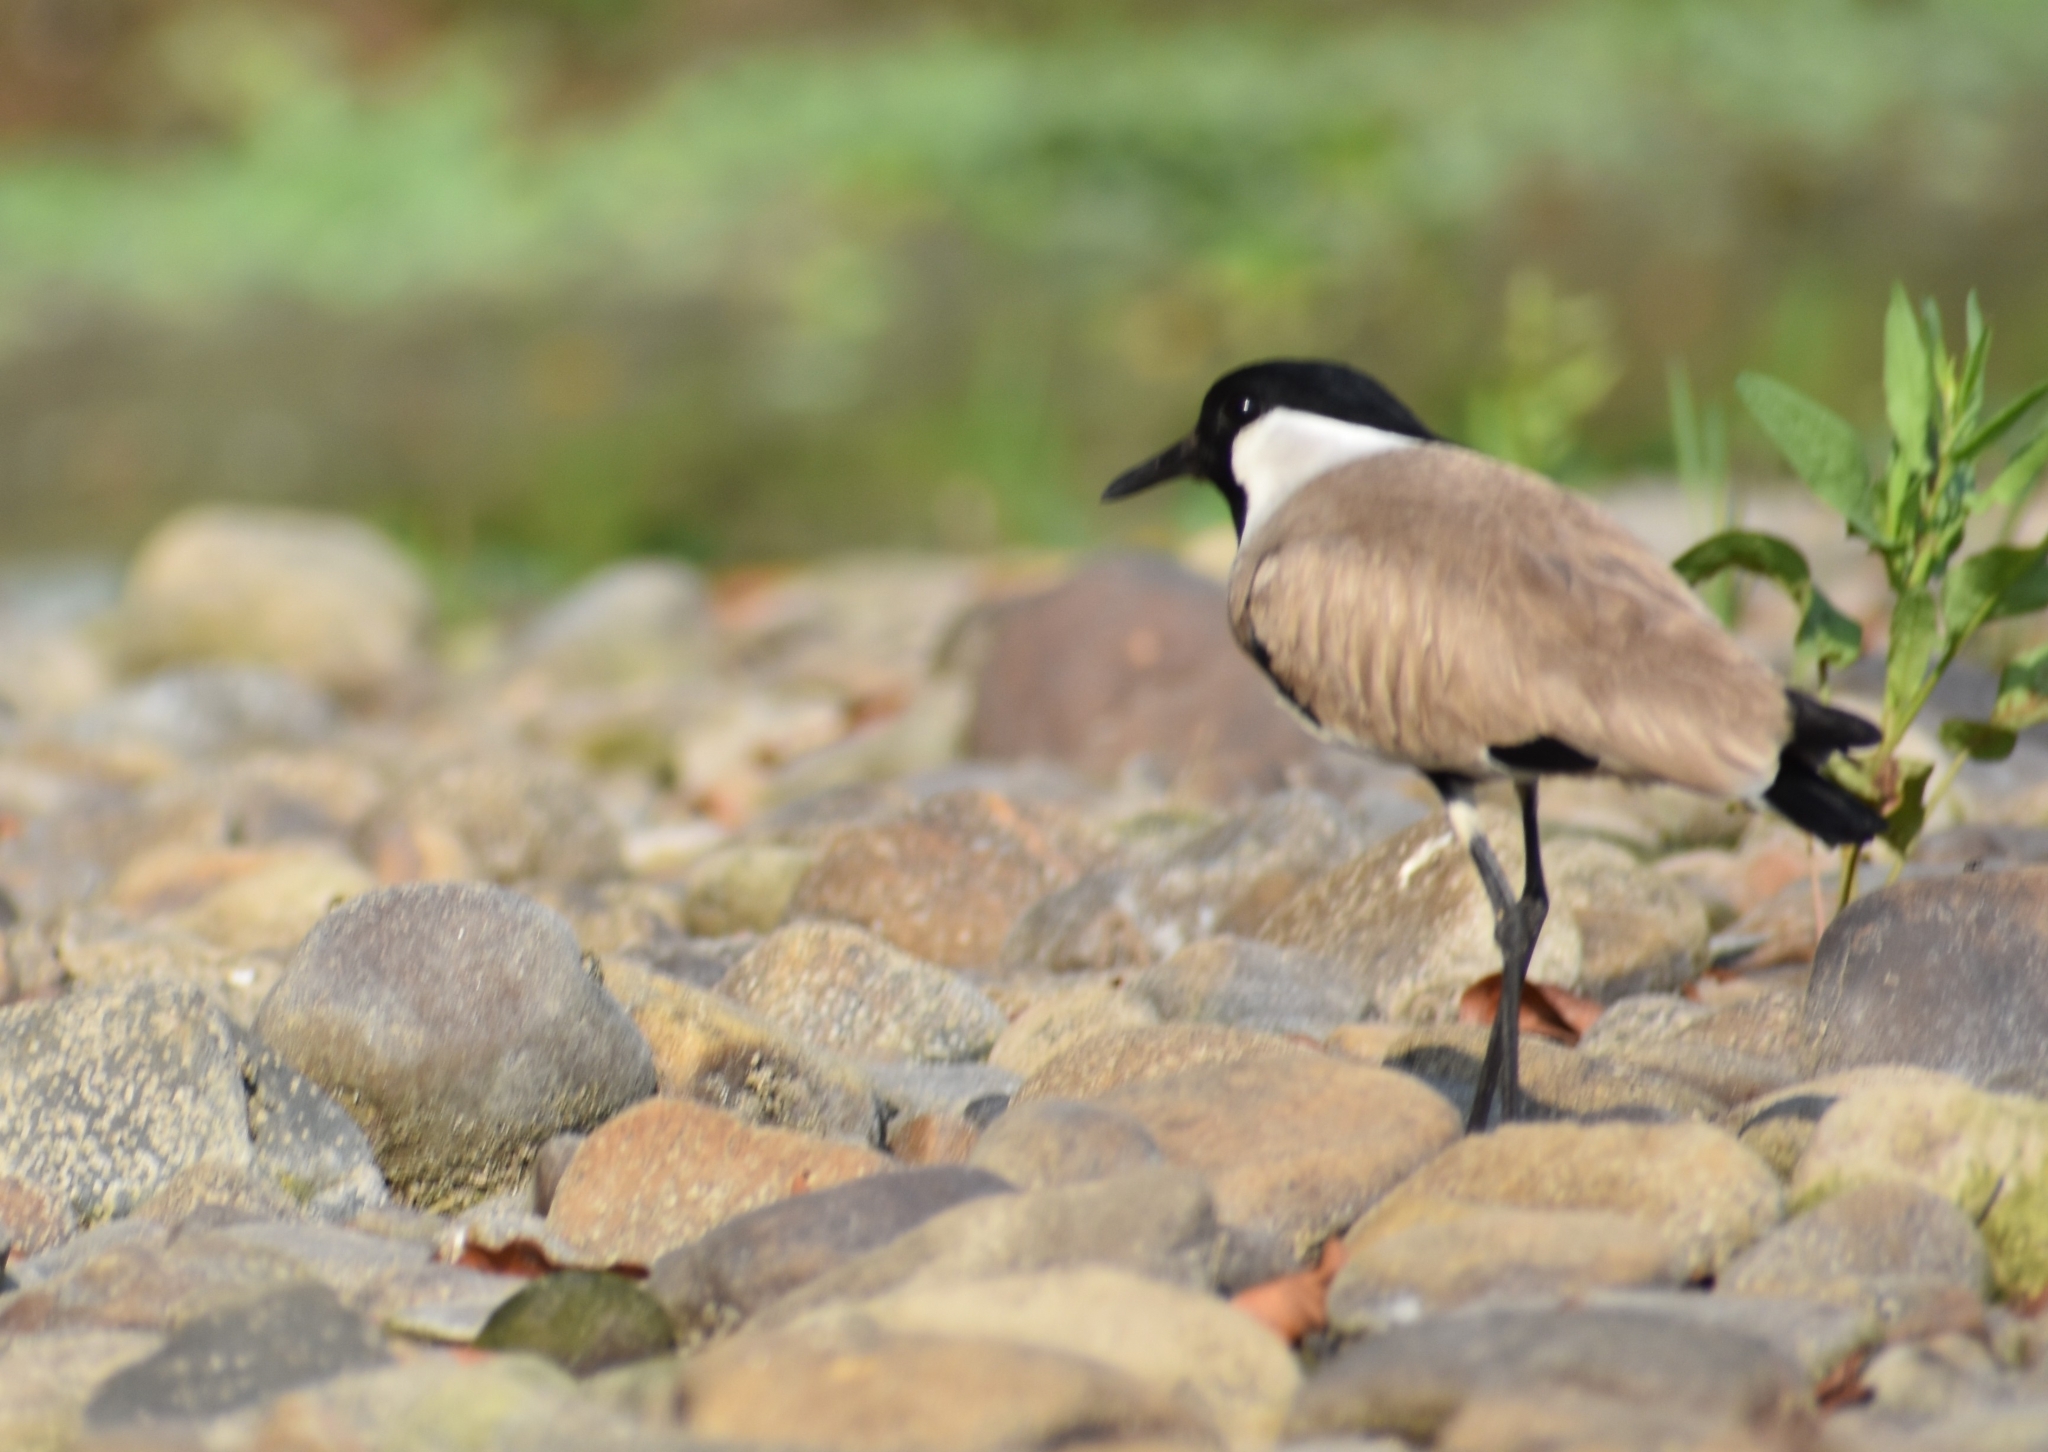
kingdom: Animalia
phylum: Chordata
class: Aves
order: Charadriiformes
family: Charadriidae
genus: Vanellus
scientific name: Vanellus duvaucelii
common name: River lapwing
